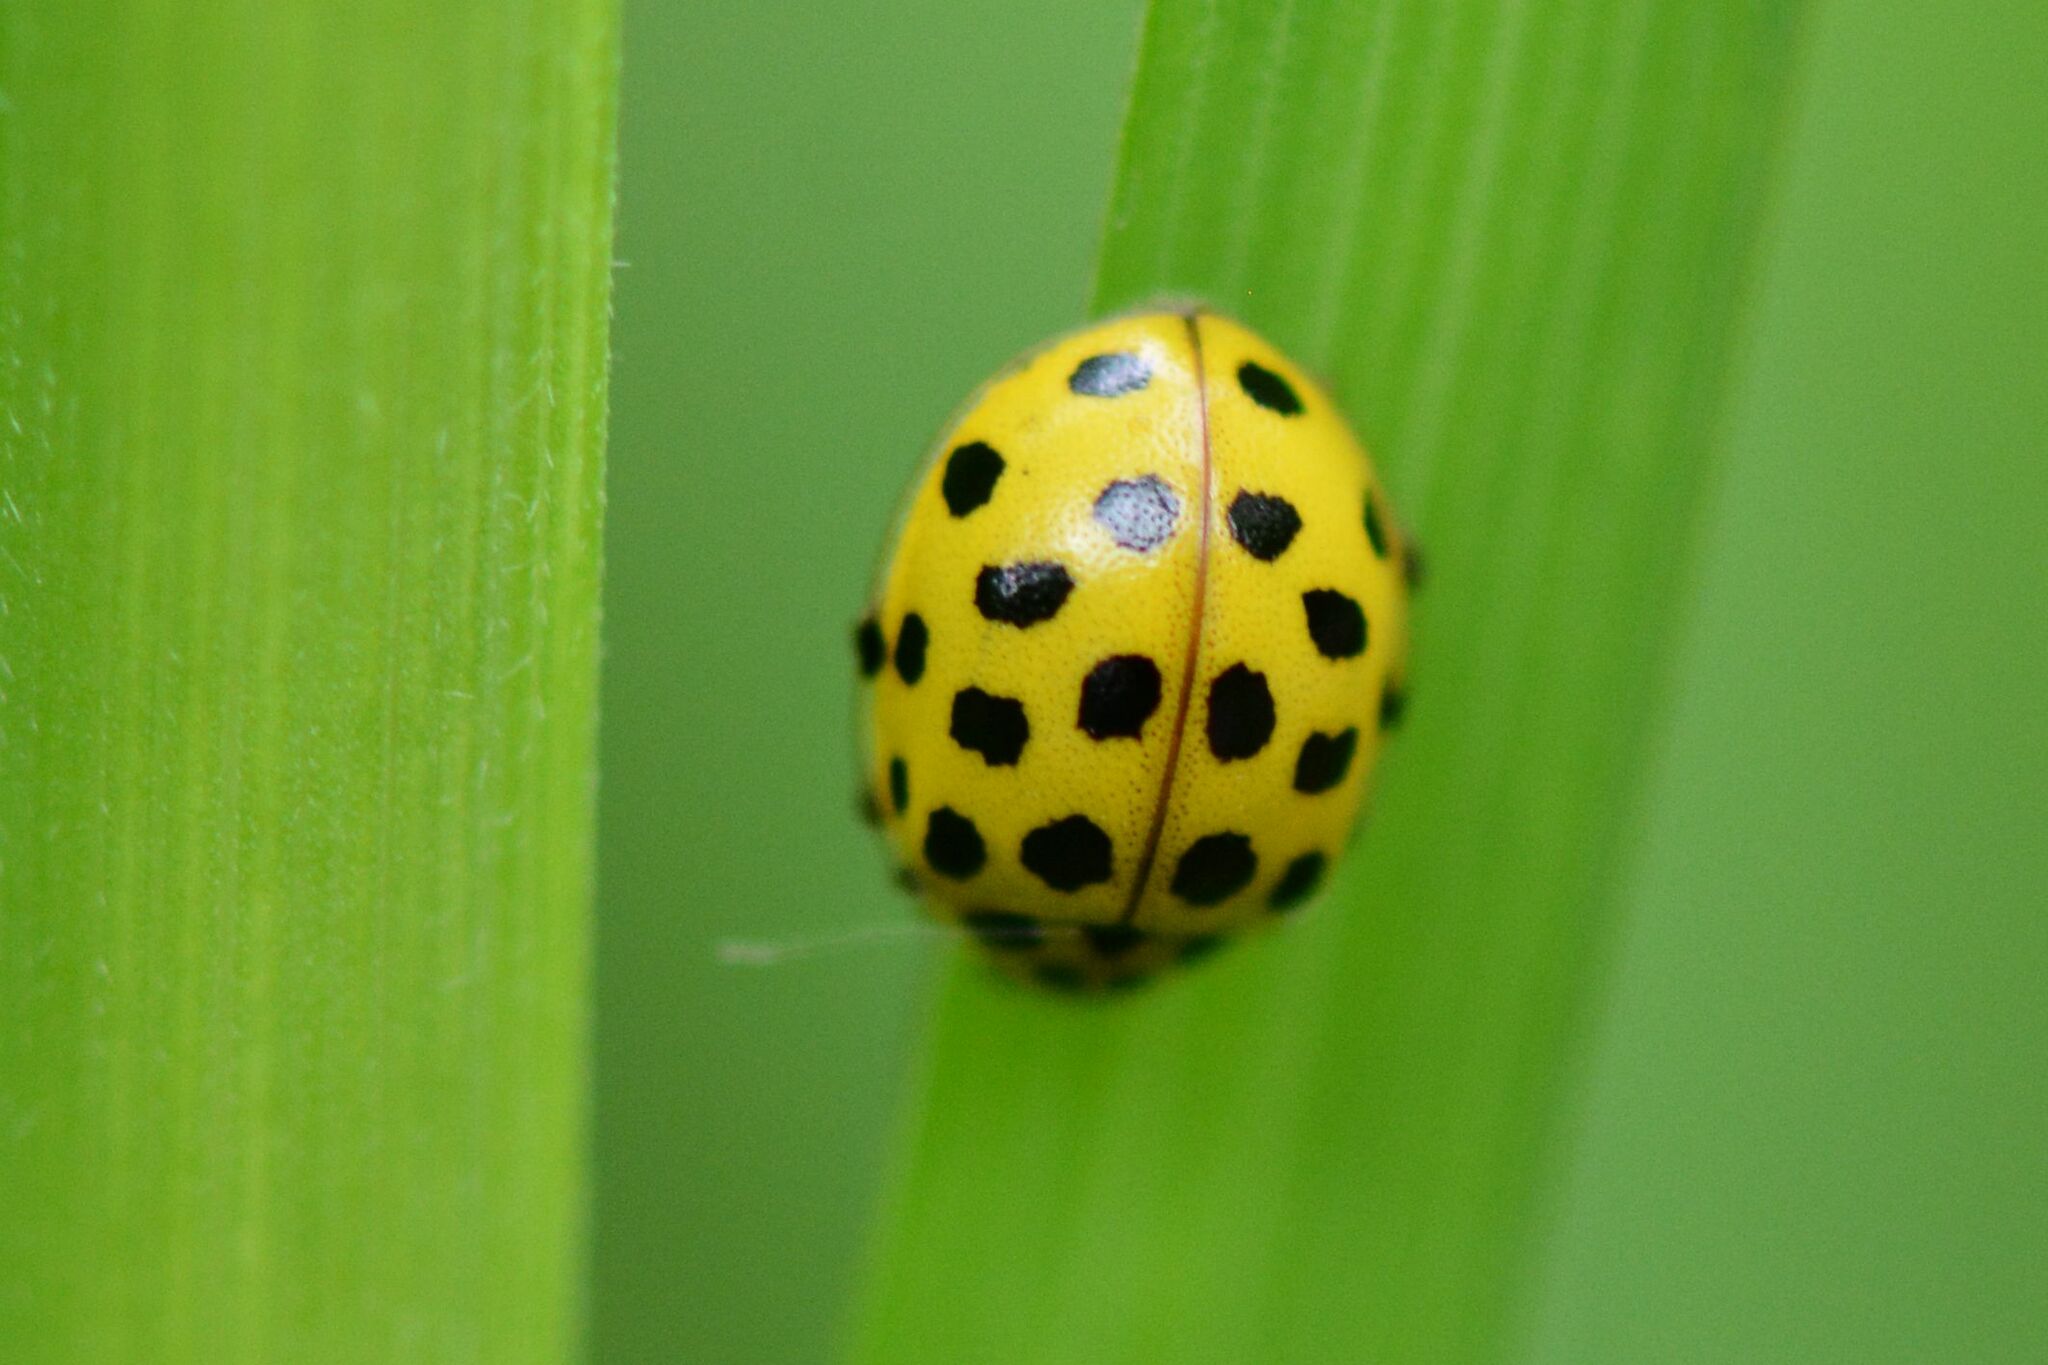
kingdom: Animalia
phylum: Arthropoda
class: Insecta
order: Coleoptera
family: Coccinellidae
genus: Psyllobora
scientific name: Psyllobora vigintiduopunctata
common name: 22-spot ladybird
